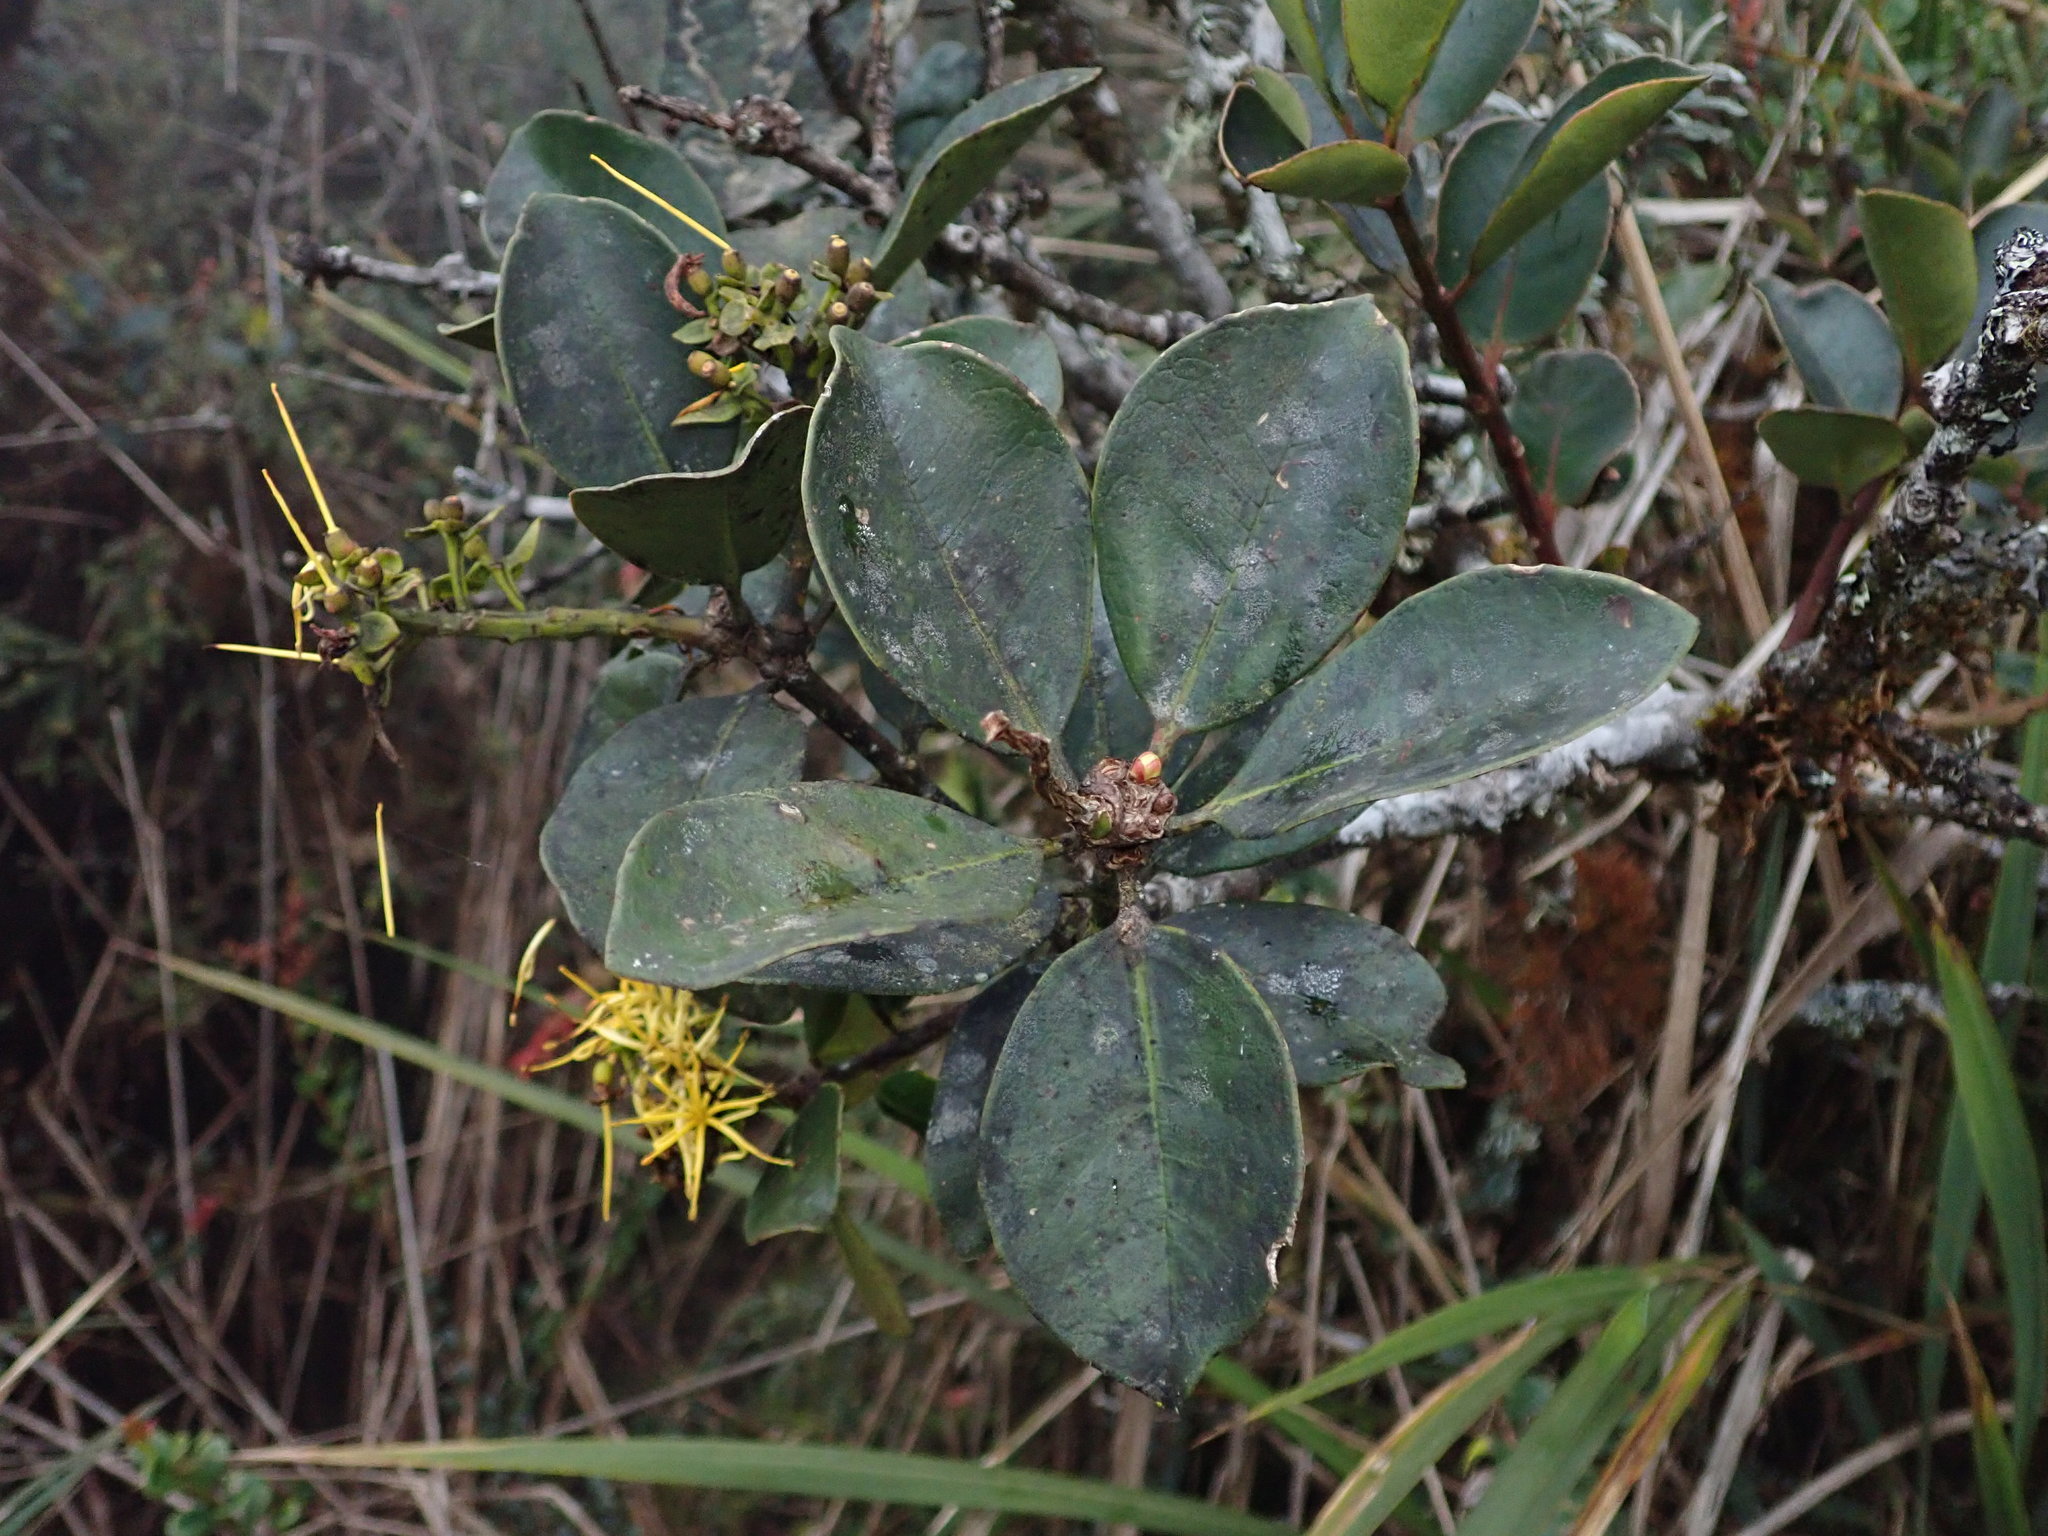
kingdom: Plantae
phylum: Tracheophyta
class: Magnoliopsida
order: Santalales
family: Loranthaceae
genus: Gaiadendron
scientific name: Gaiadendron punctatum
